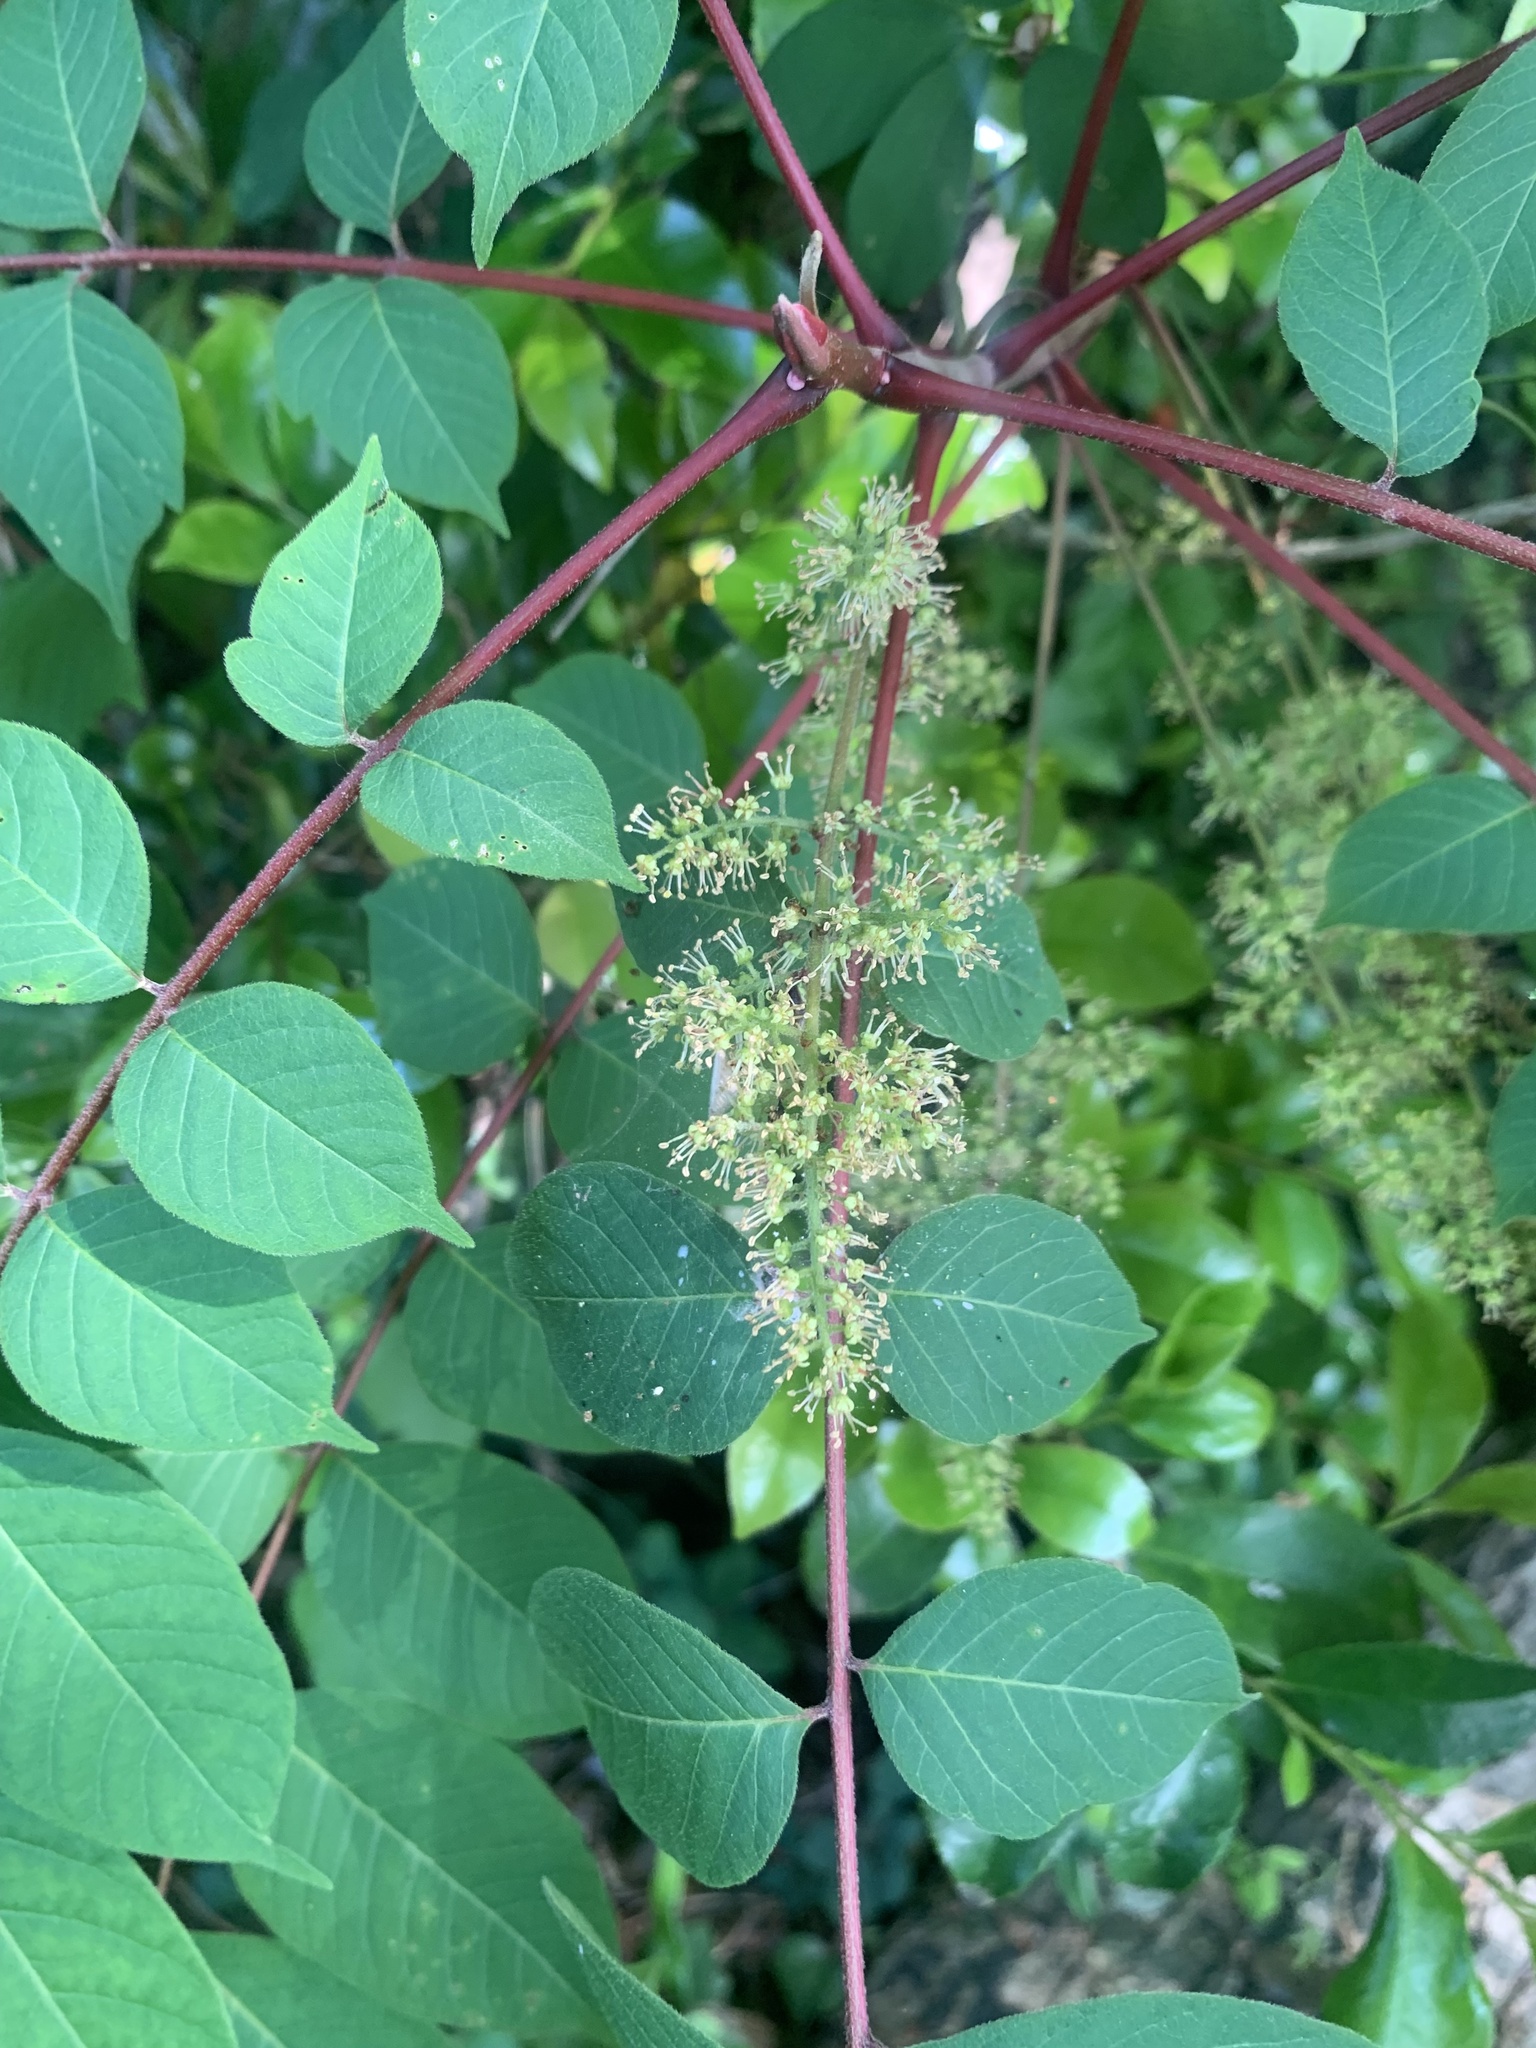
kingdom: Plantae
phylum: Tracheophyta
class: Magnoliopsida
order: Sapindales
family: Anacardiaceae
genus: Toxicodendron
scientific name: Toxicodendron trichocarpum
